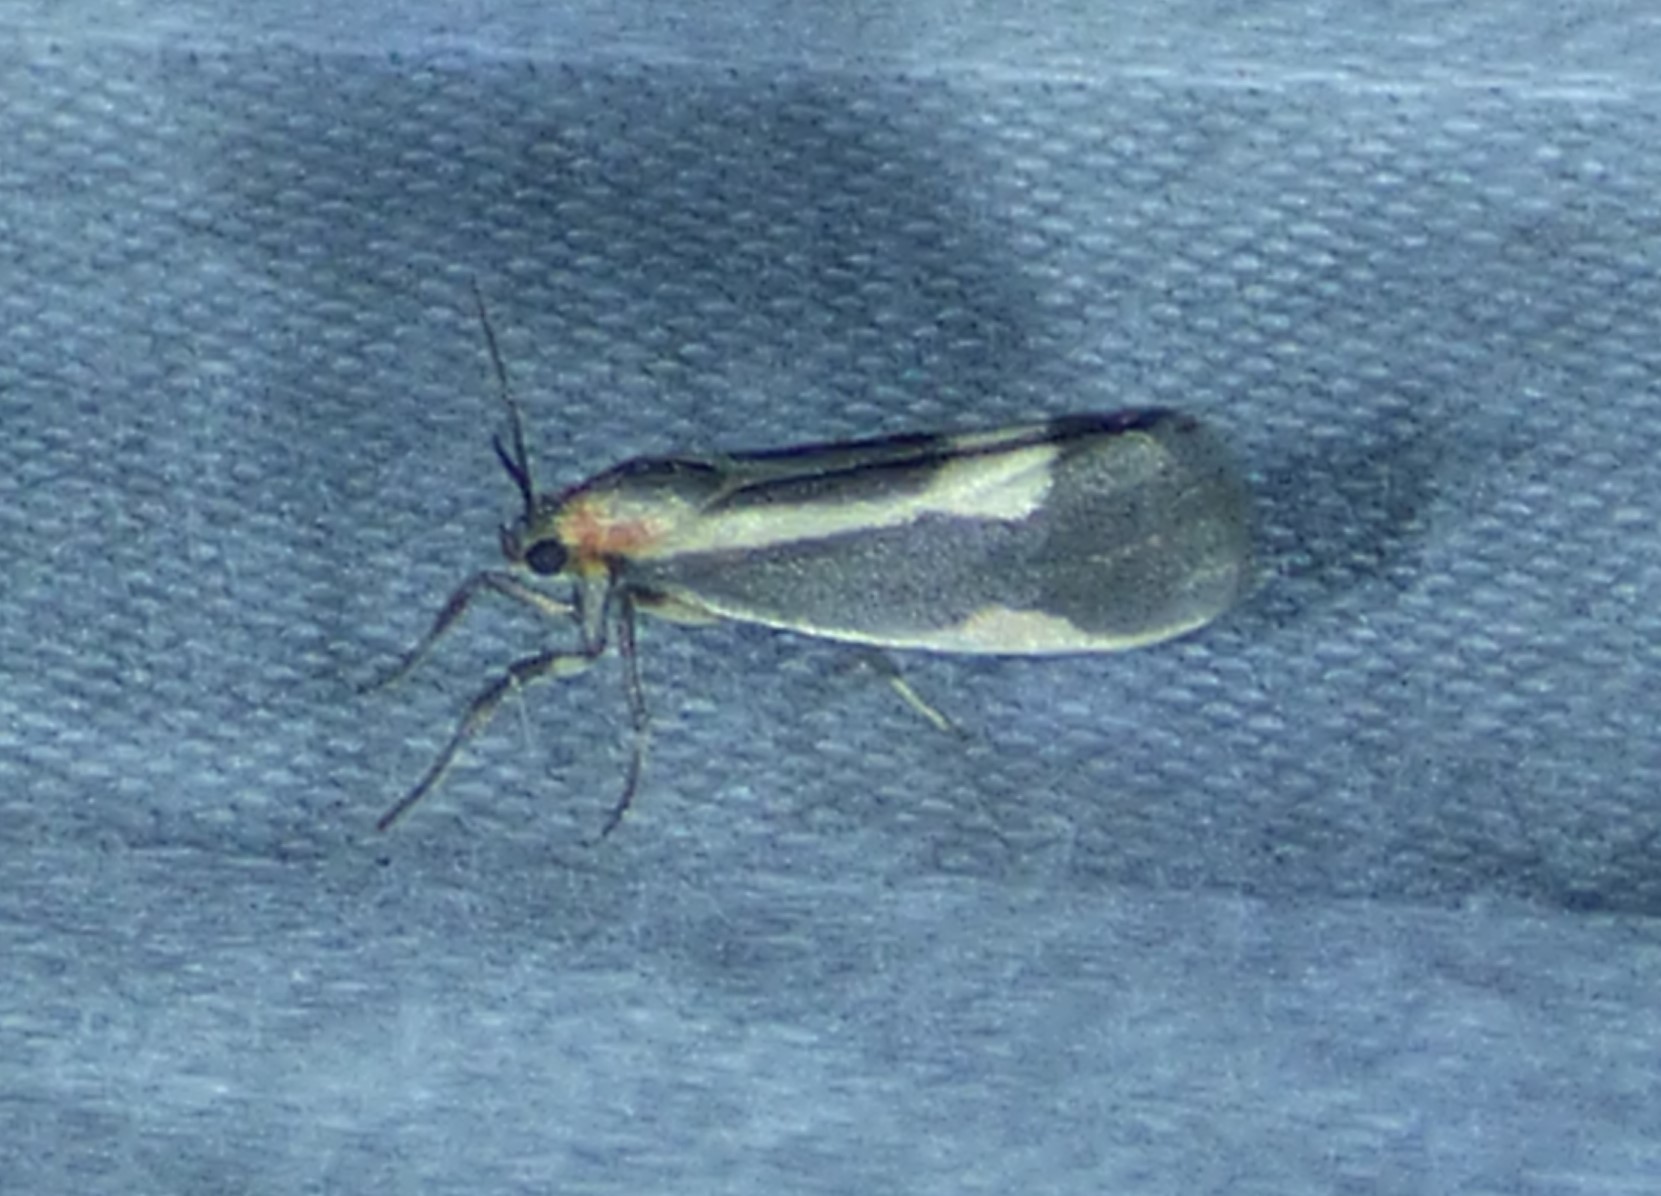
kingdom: Animalia
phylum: Arthropoda
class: Insecta
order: Lepidoptera
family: Erebidae
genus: Cisthene
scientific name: Cisthene packardii
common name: Packard's lichen moth
